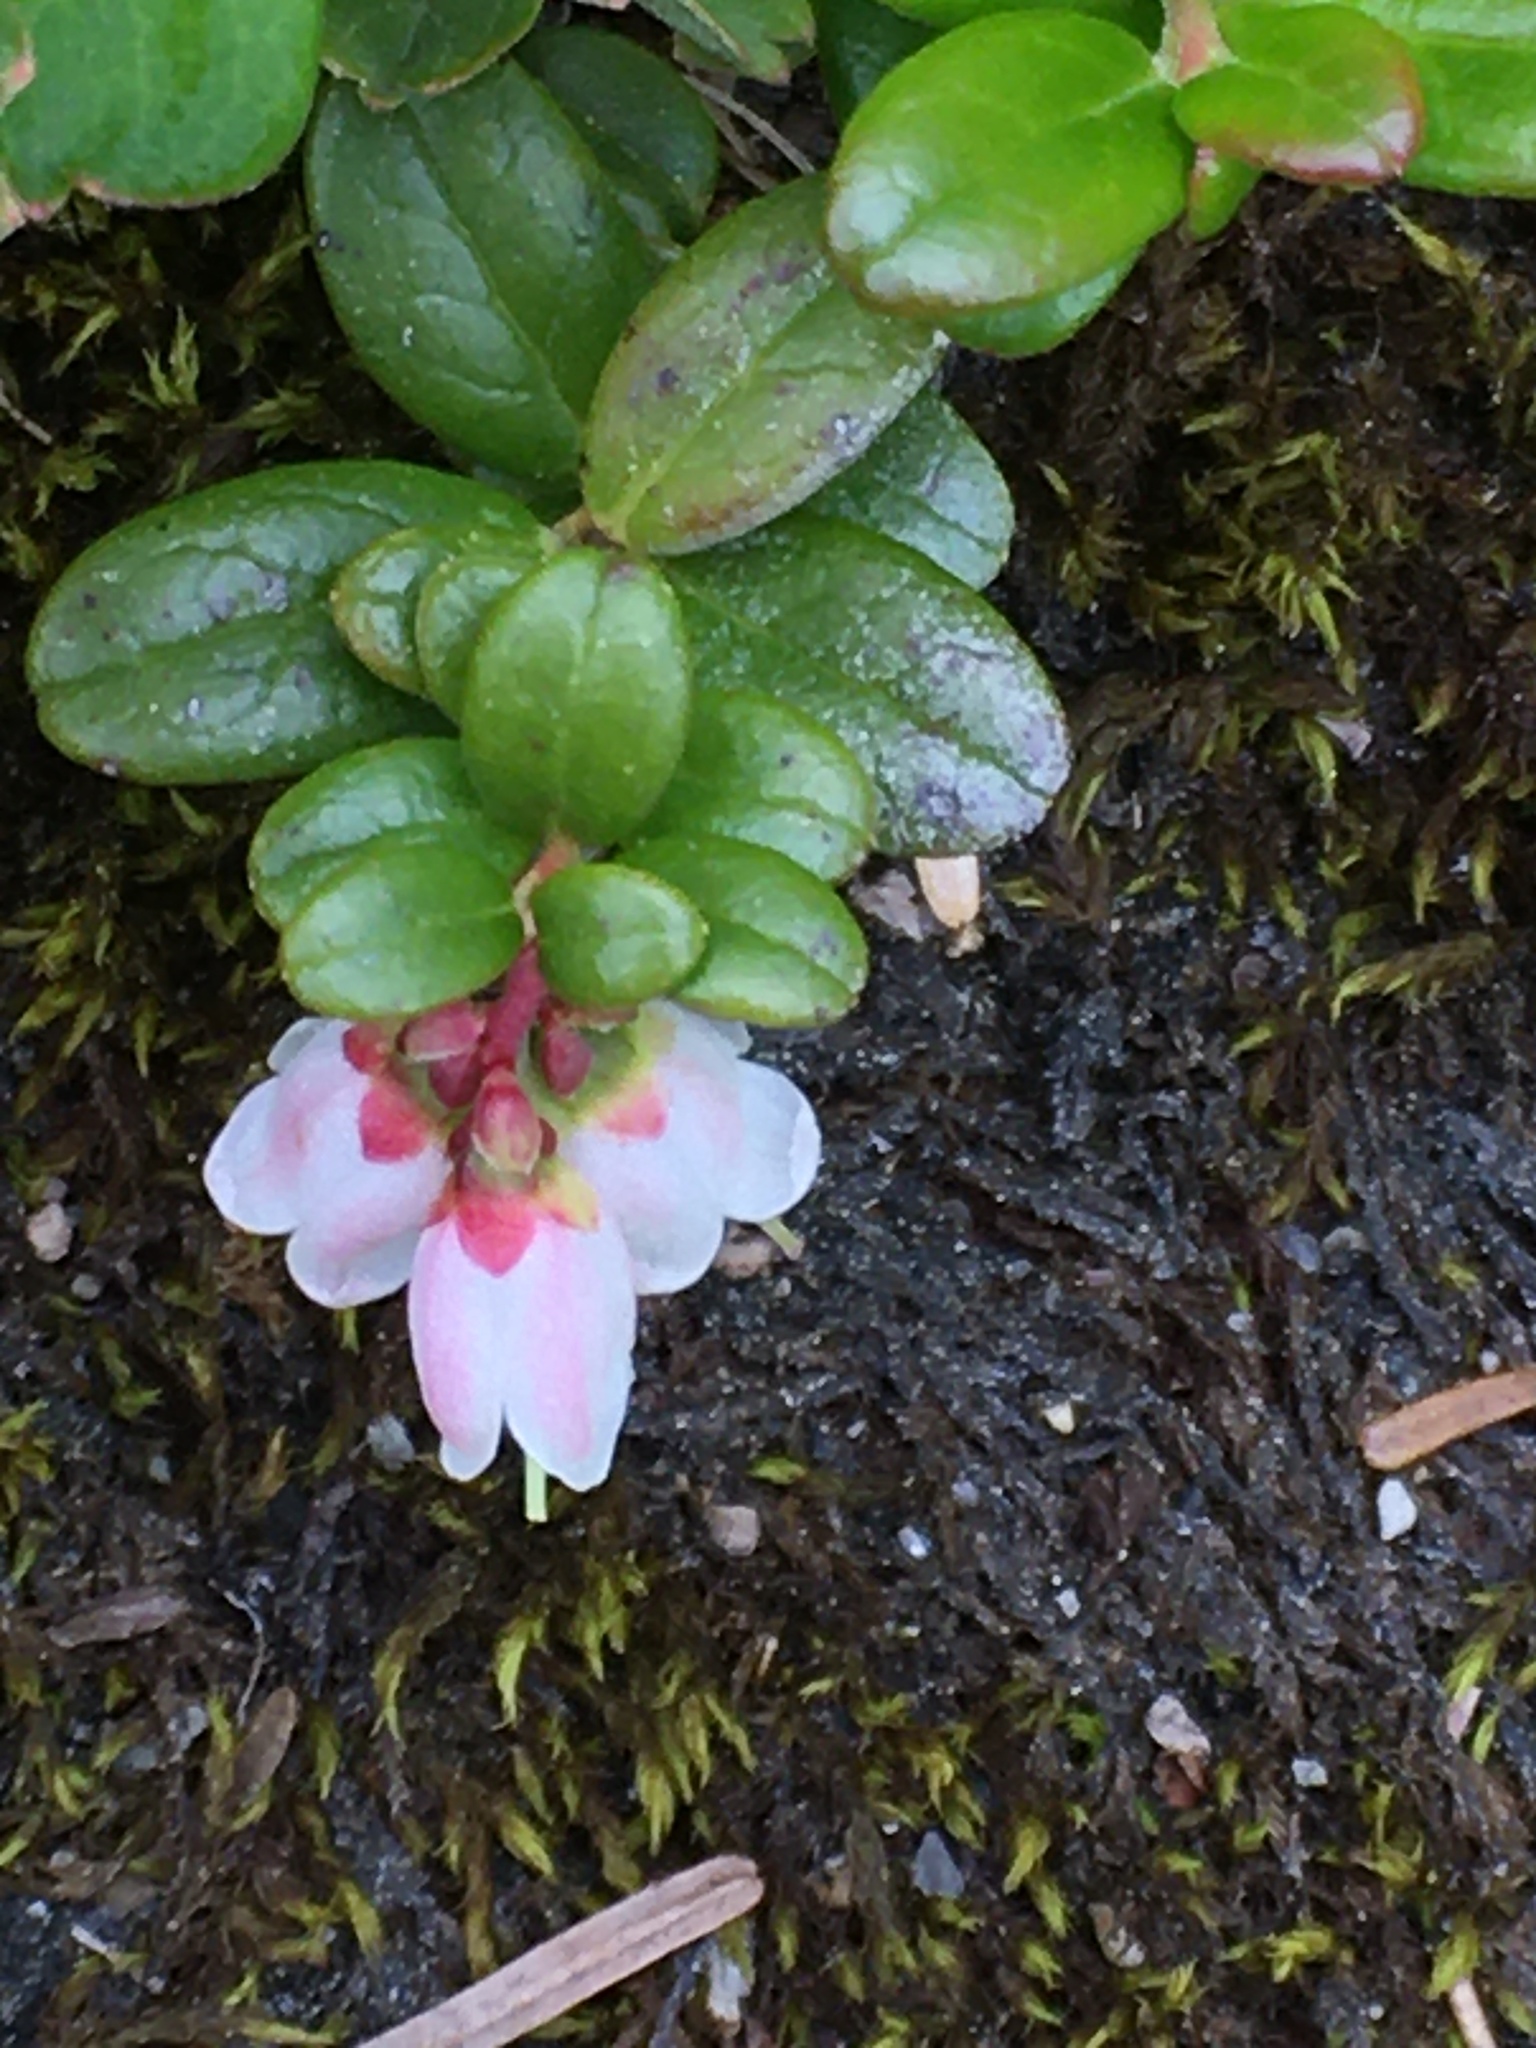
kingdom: Plantae
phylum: Tracheophyta
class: Magnoliopsida
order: Ericales
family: Ericaceae
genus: Vaccinium
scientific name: Vaccinium vitis-idaea
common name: Cowberry
